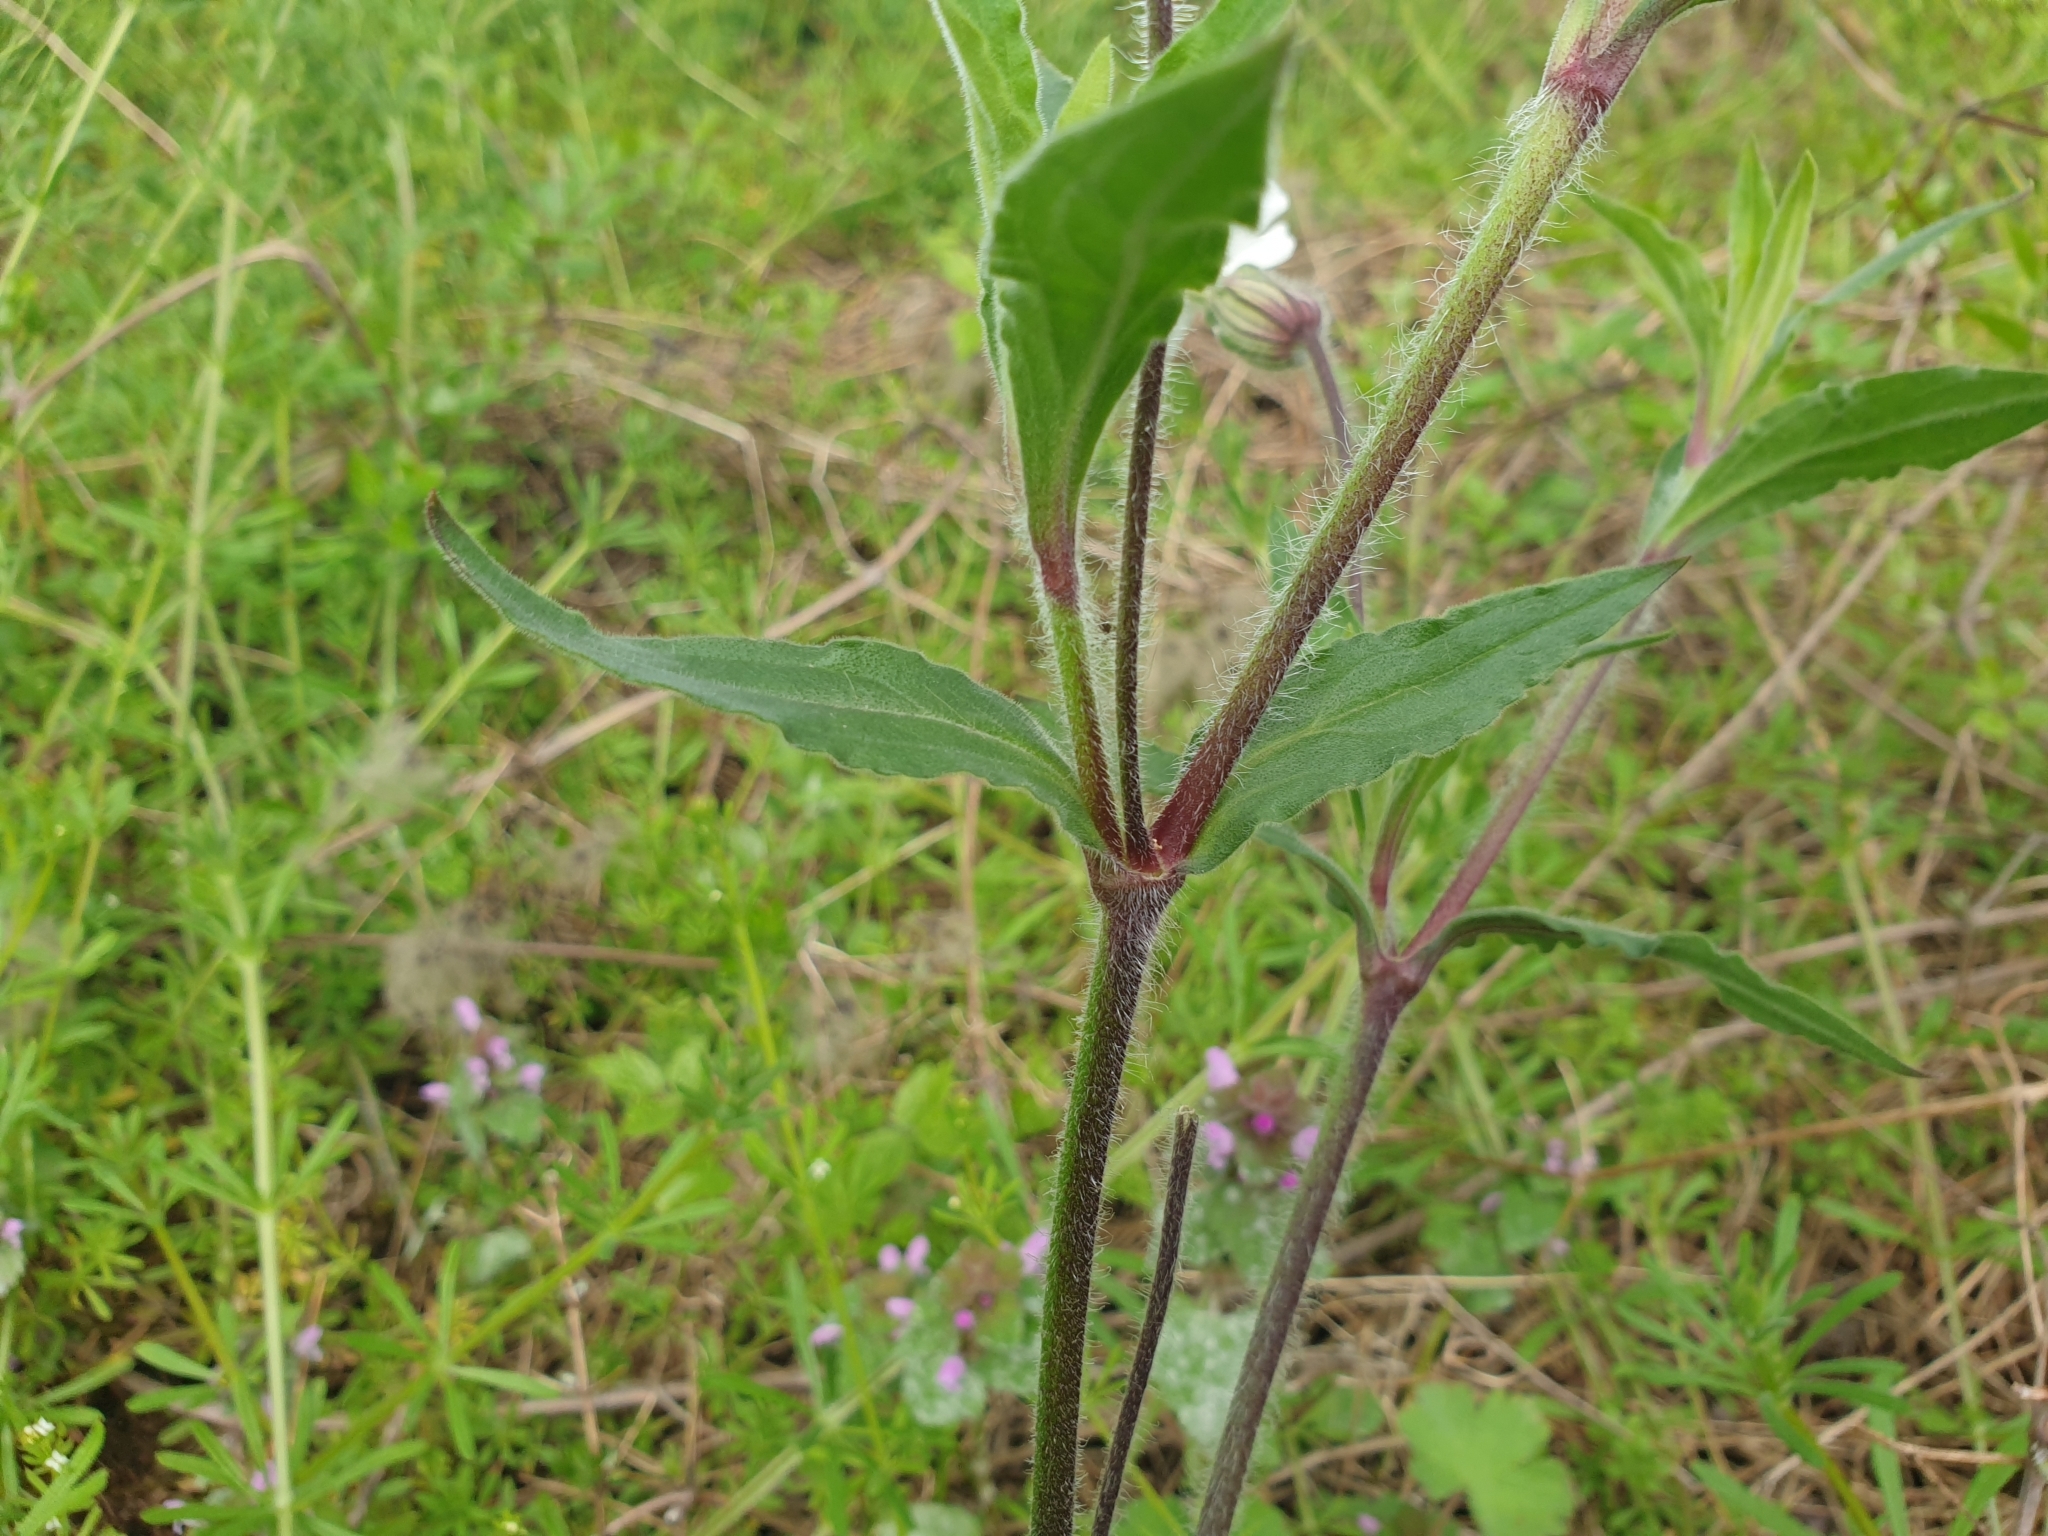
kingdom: Plantae
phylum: Tracheophyta
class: Magnoliopsida
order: Caryophyllales
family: Caryophyllaceae
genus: Silene
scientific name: Silene latifolia
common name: White campion
